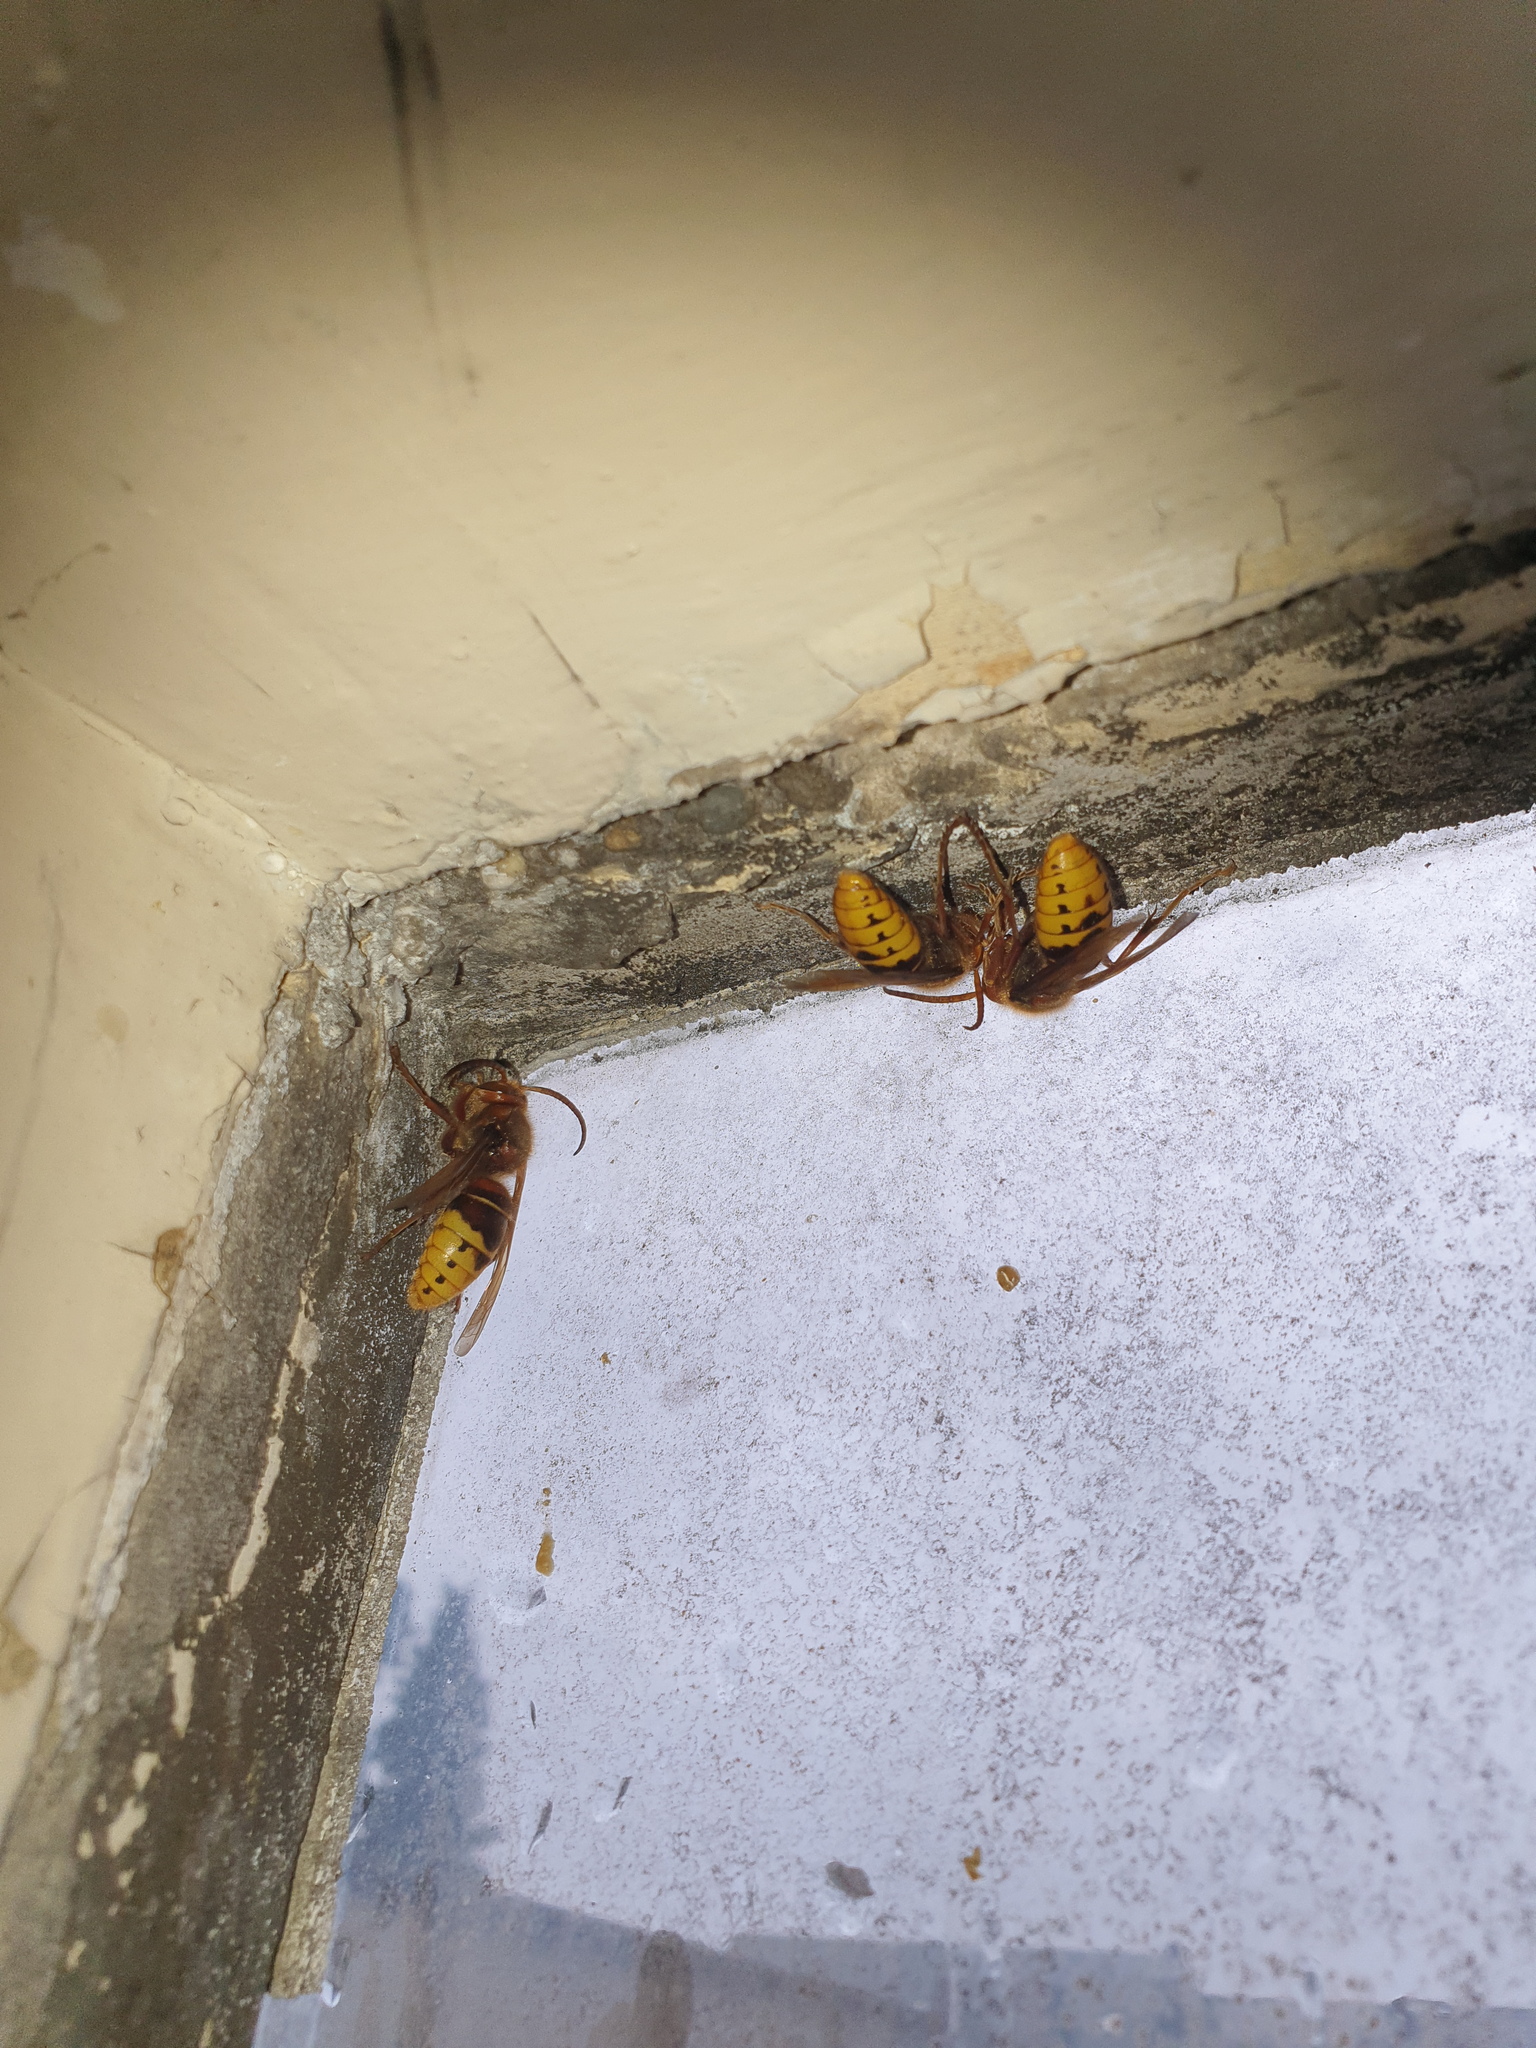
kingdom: Animalia
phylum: Arthropoda
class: Insecta
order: Hymenoptera
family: Vespidae
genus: Vespa
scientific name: Vespa crabro
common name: Hornet
